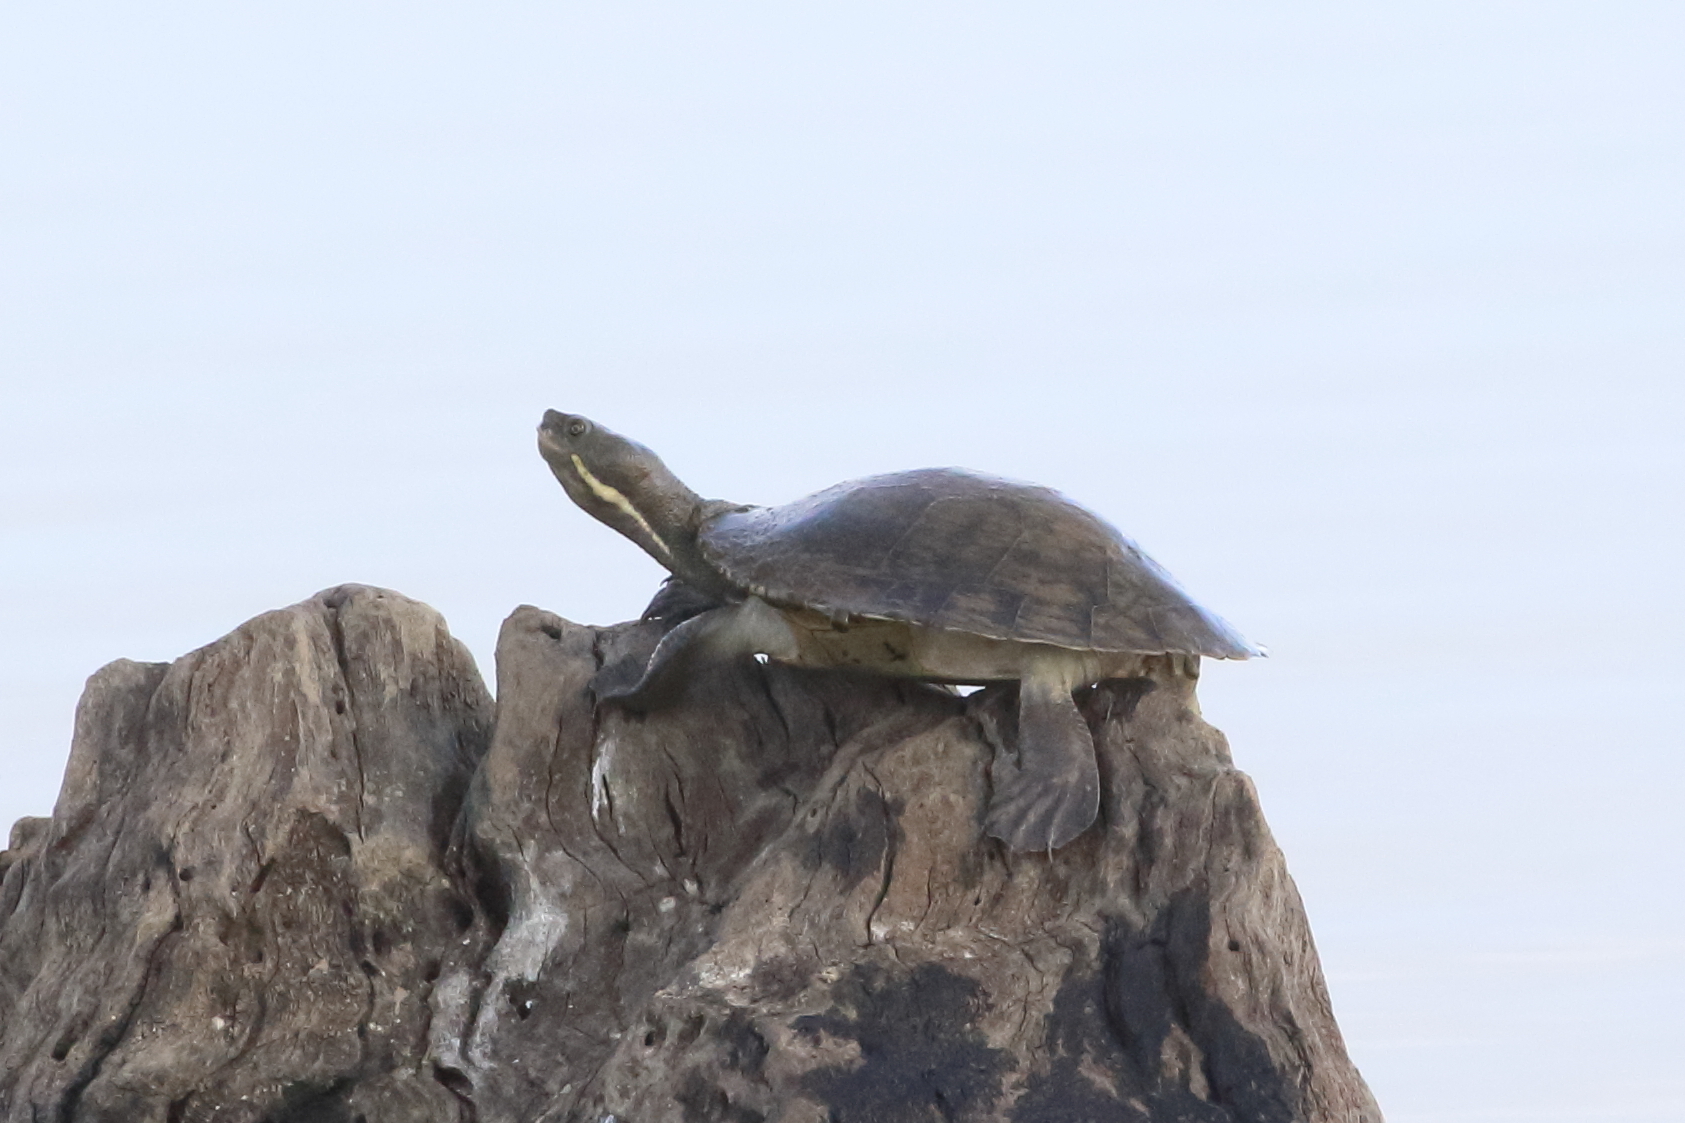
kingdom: Animalia
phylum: Chordata
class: Testudines
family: Chelidae
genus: Emydura
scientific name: Emydura macquarii
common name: Murray river turtle
